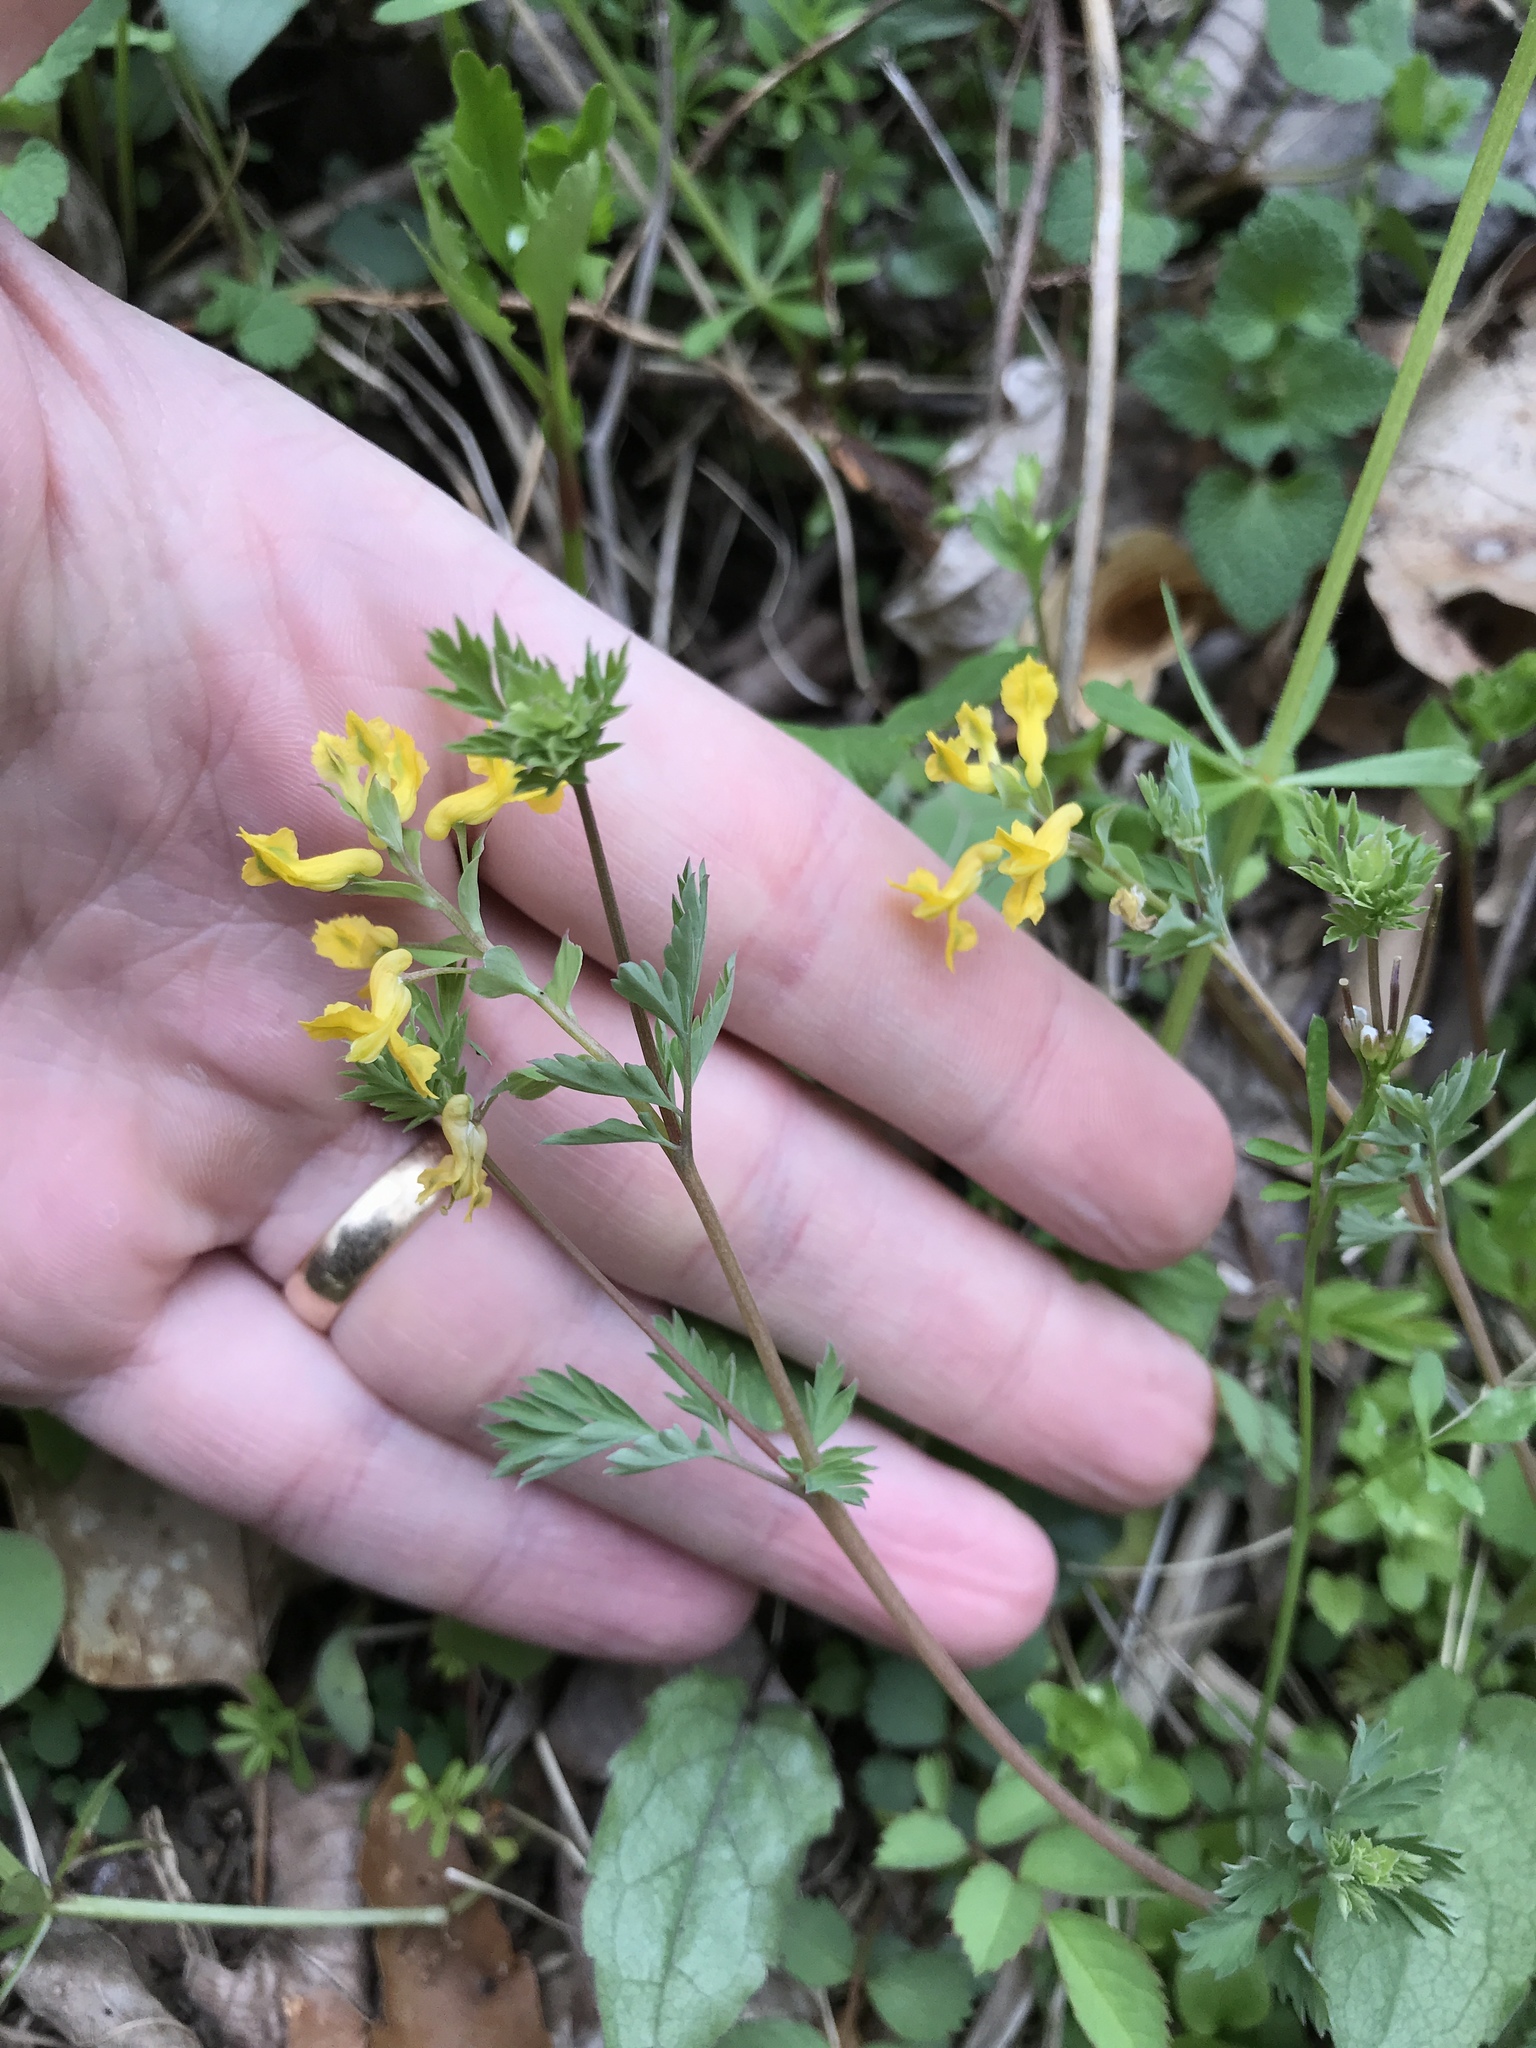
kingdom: Plantae
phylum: Tracheophyta
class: Magnoliopsida
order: Ranunculales
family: Papaveraceae
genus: Corydalis
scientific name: Corydalis flavula
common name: Yellow corydalis
